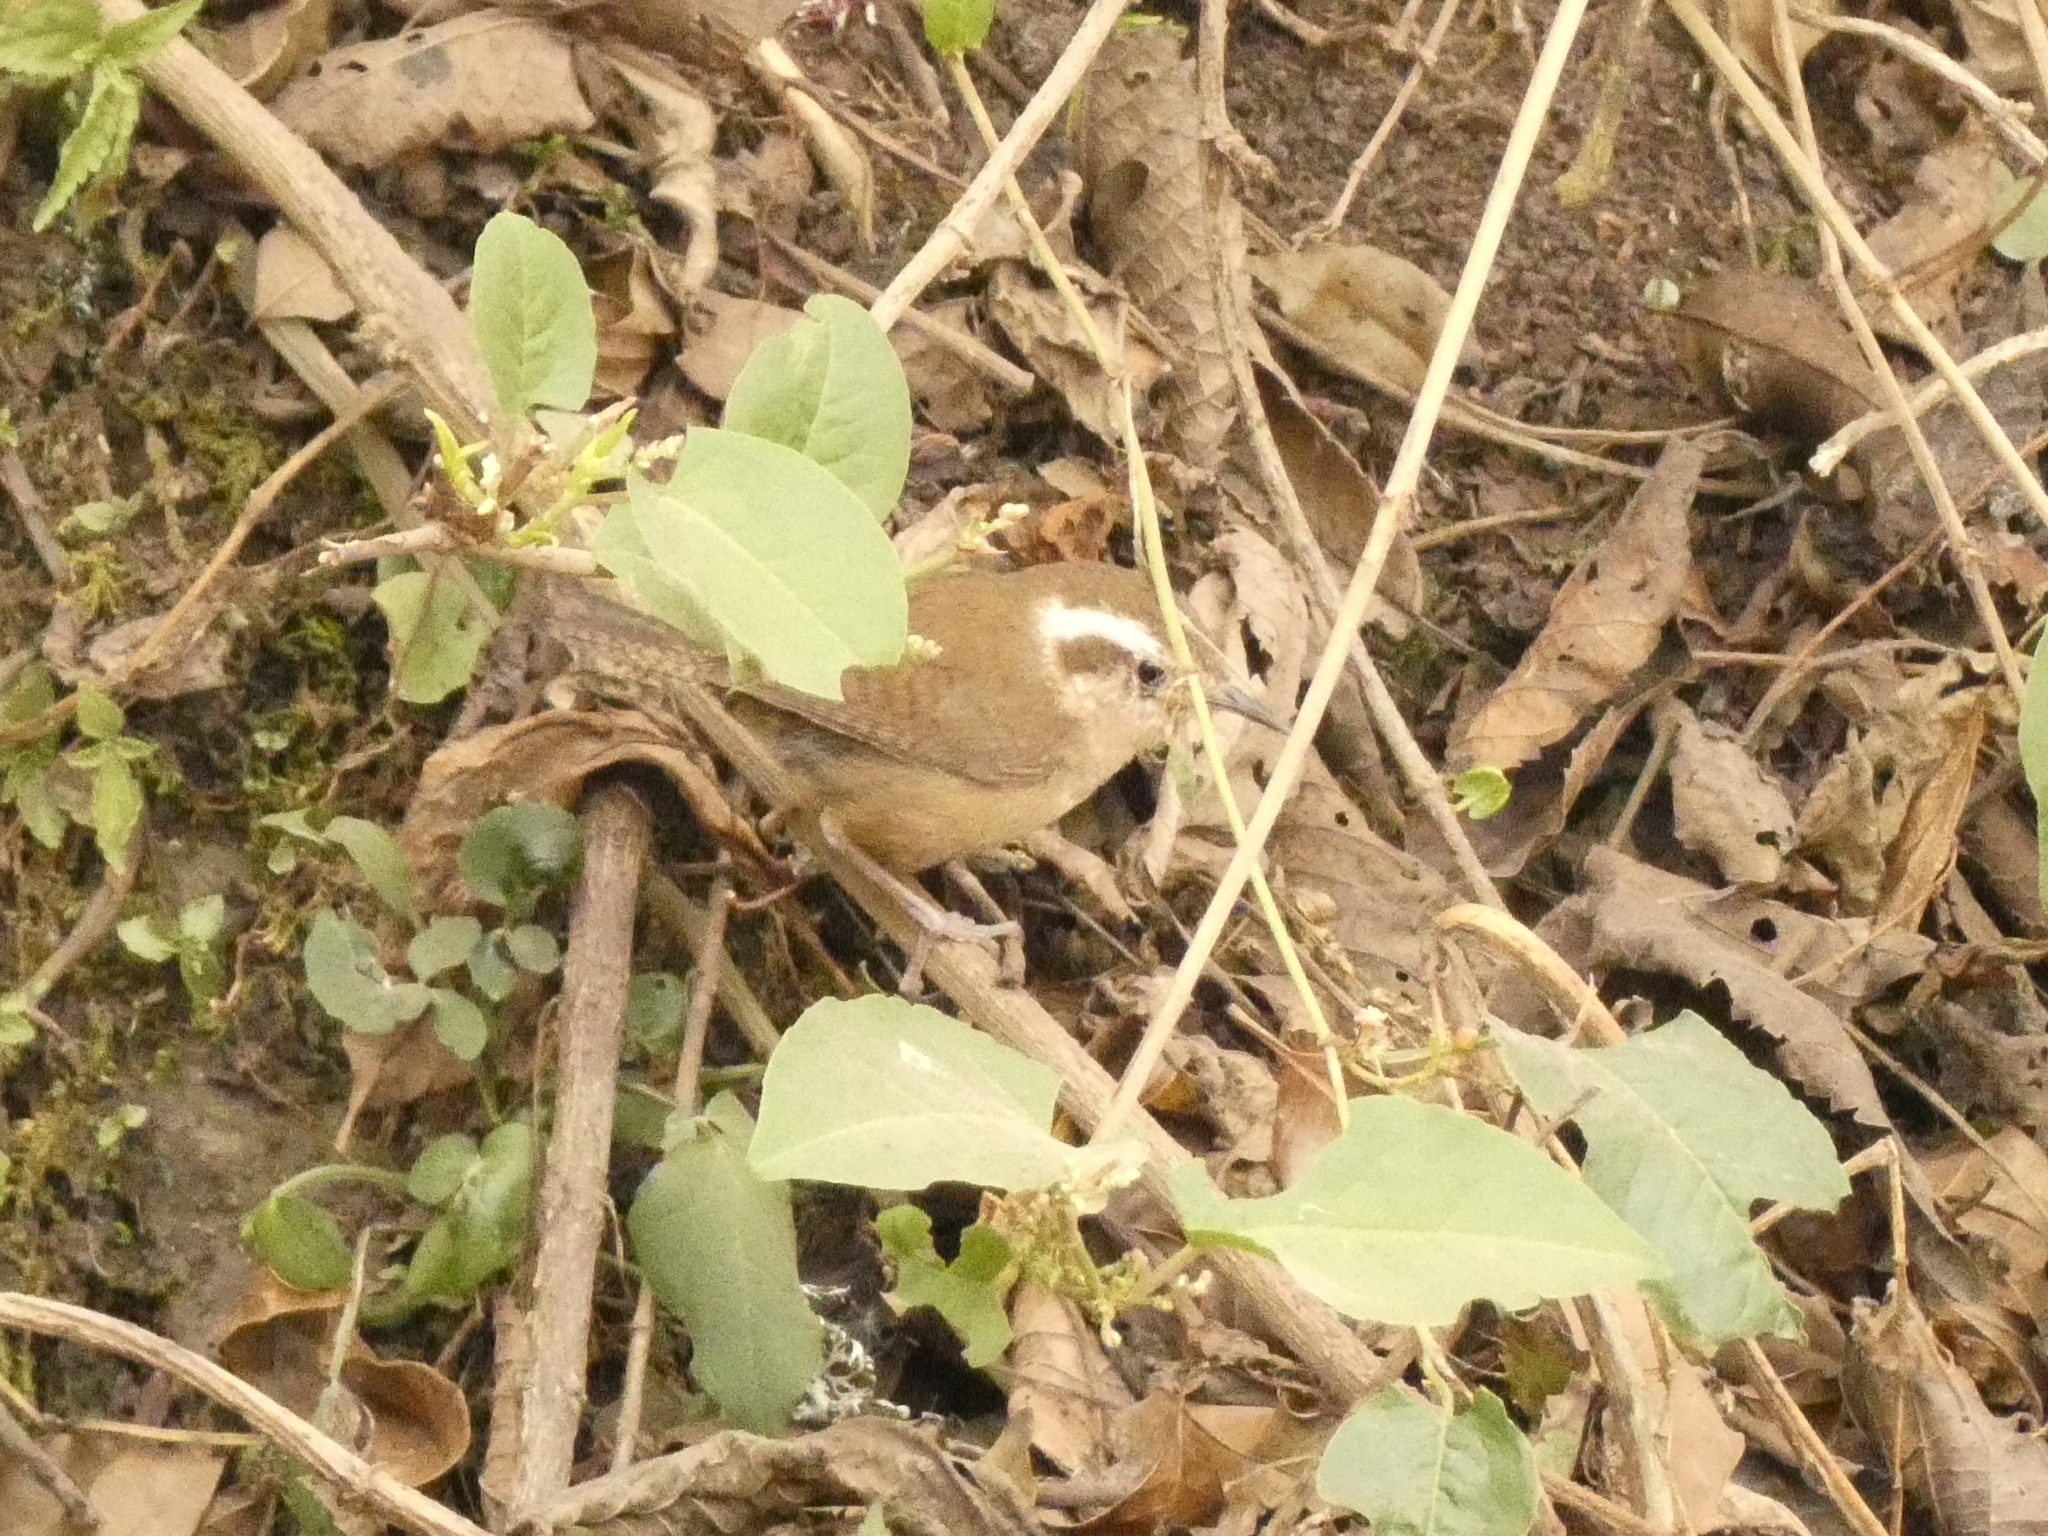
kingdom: Animalia
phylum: Chordata
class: Aves
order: Passeriformes
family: Troglodytidae
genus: Troglodytes
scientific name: Troglodytes solstitialis
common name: Mountain wren
